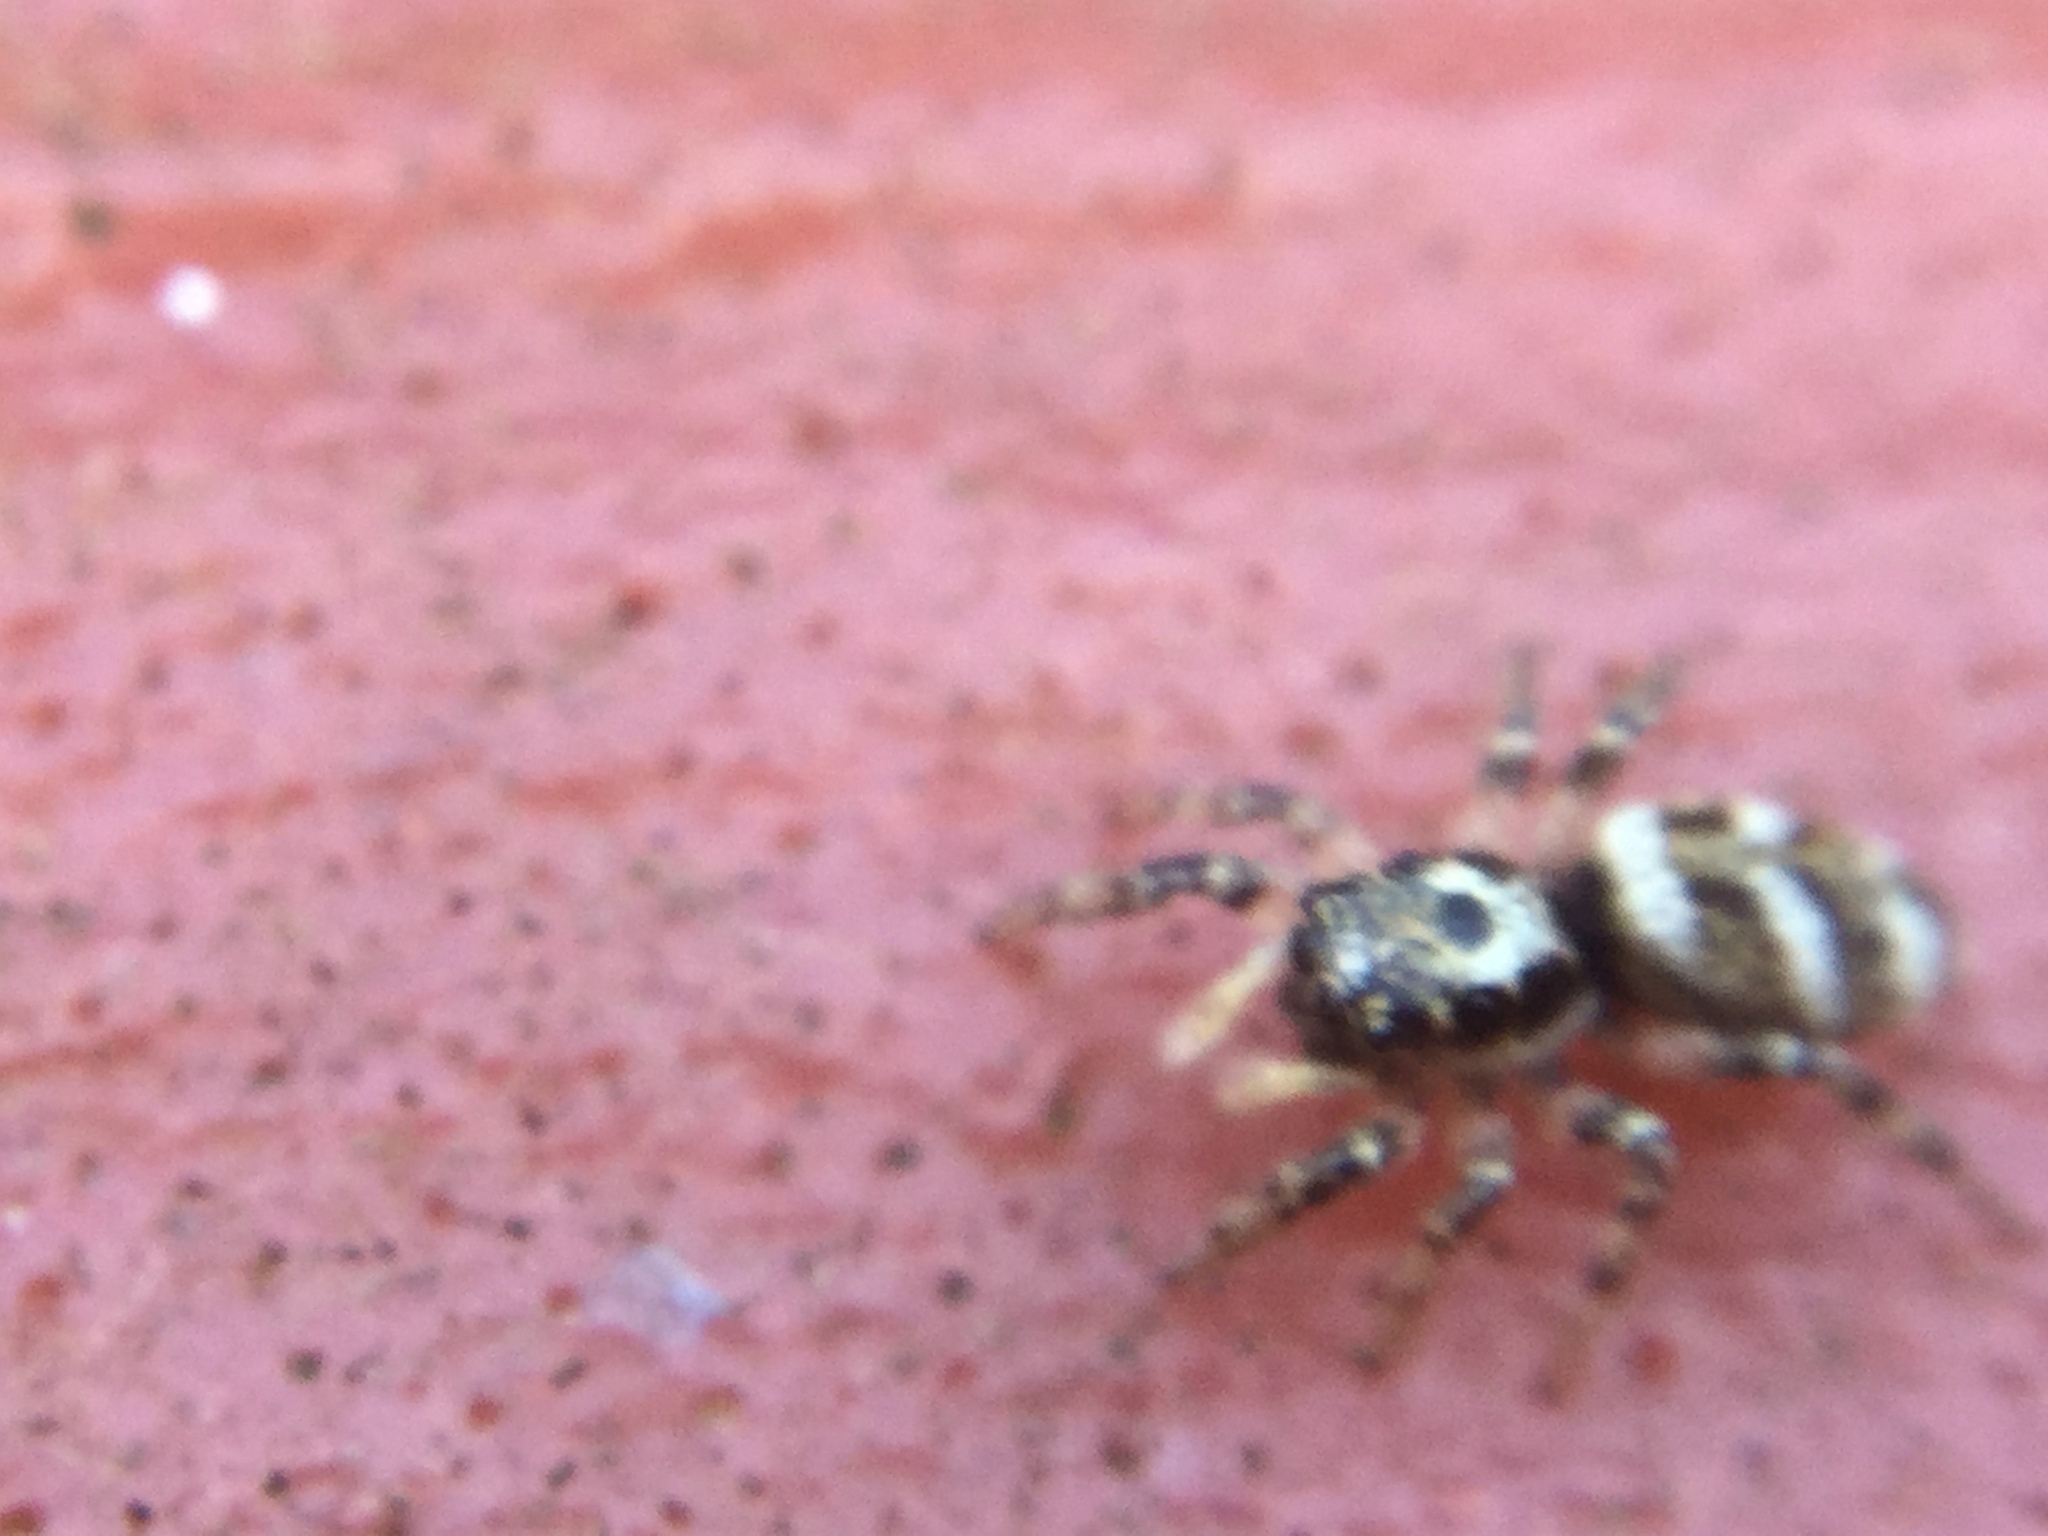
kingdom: Animalia
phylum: Arthropoda
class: Arachnida
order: Araneae
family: Salticidae
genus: Salticus
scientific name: Salticus scenicus
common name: Zebra jumper
